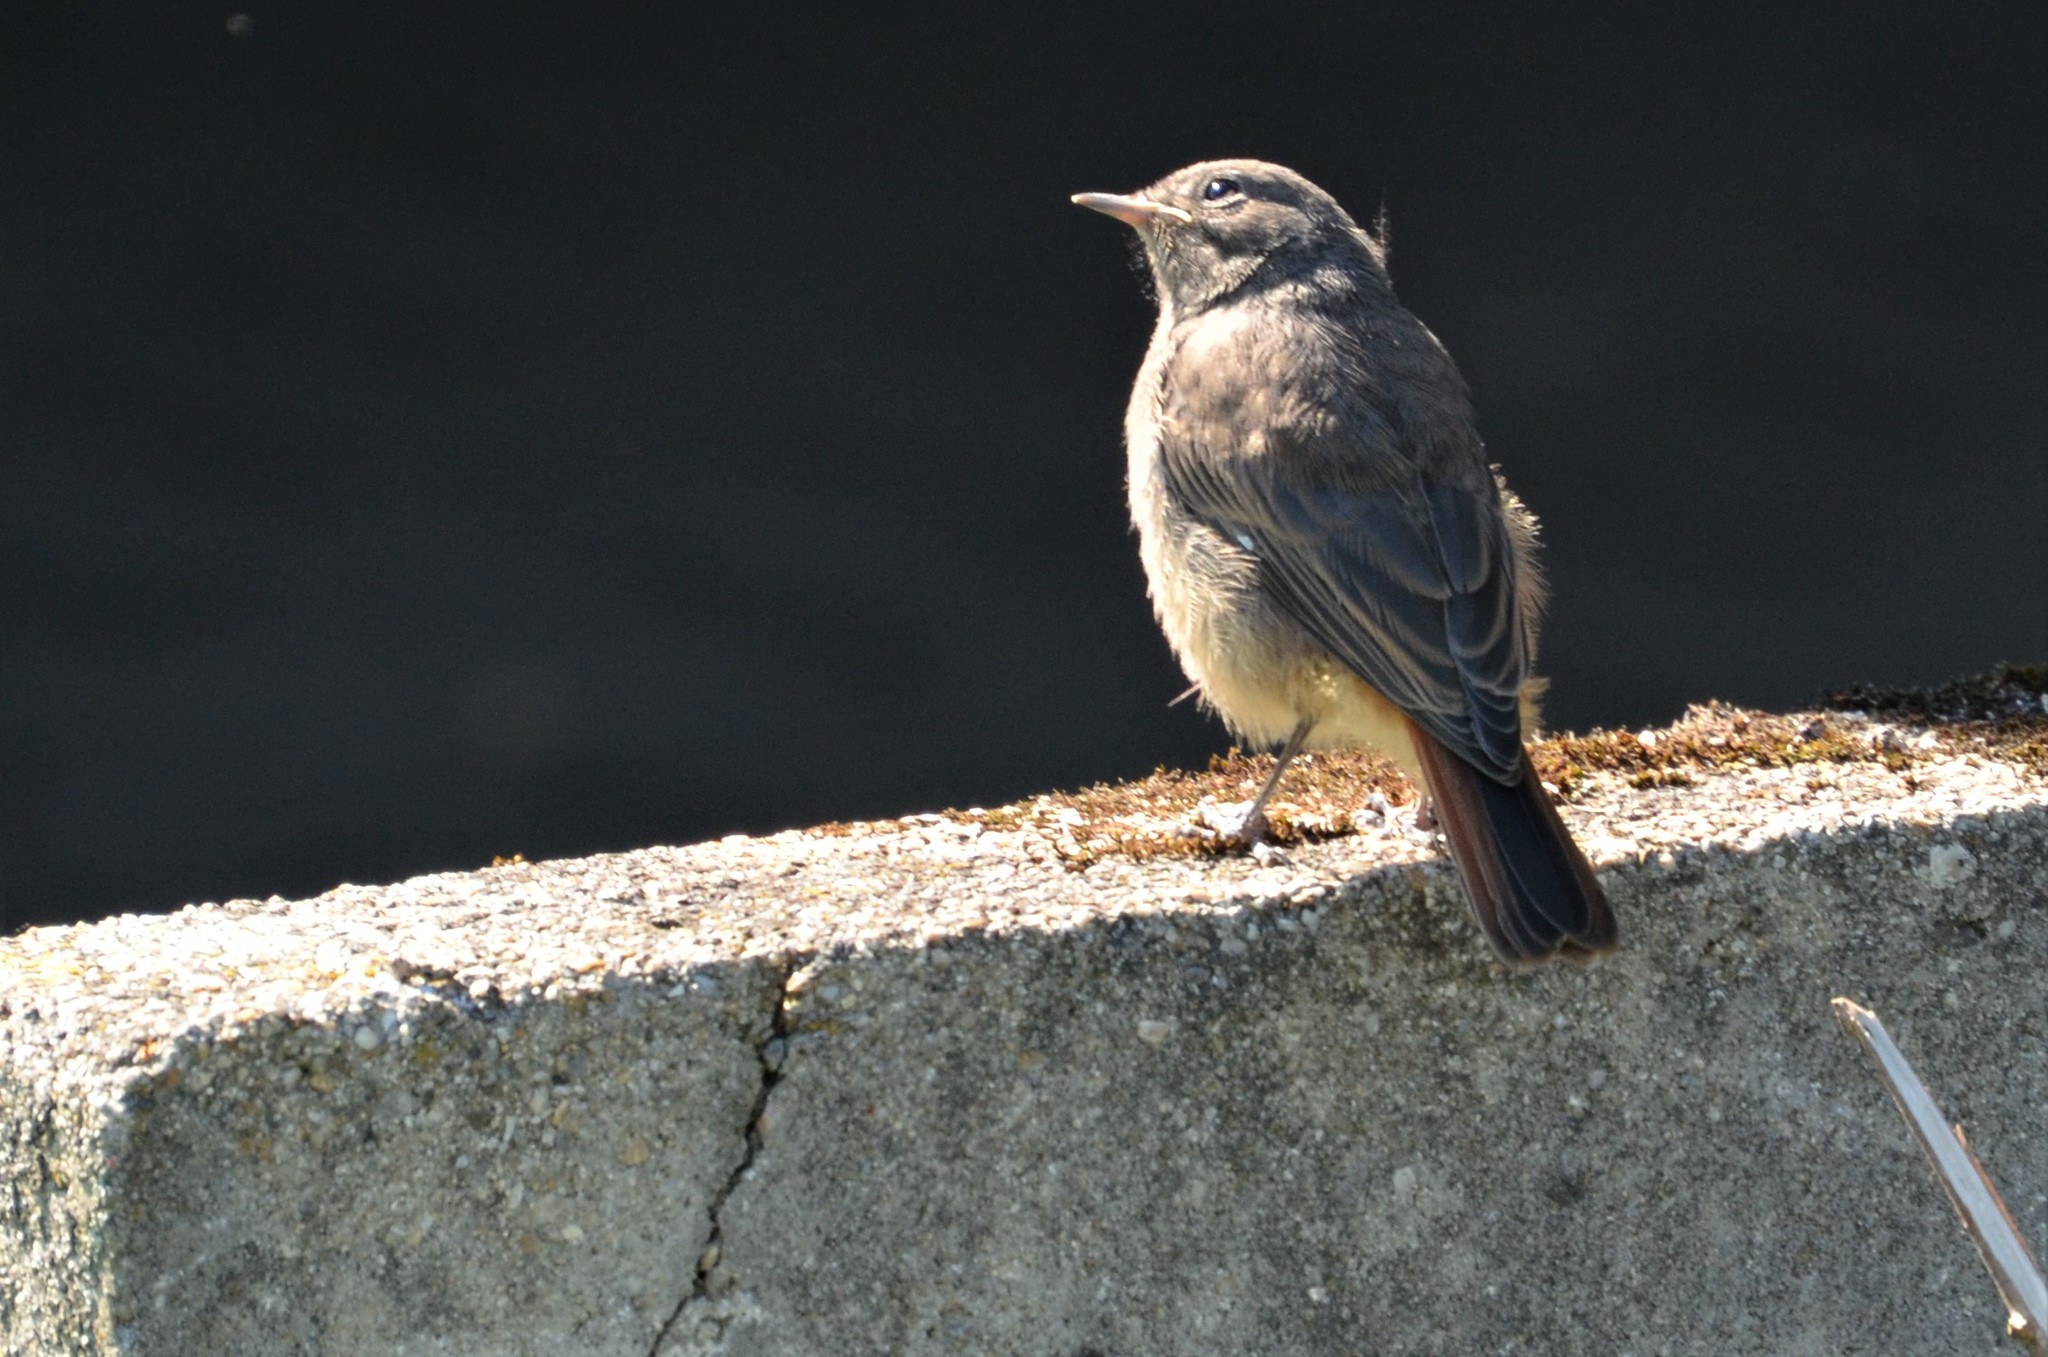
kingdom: Animalia
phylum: Chordata
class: Aves
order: Passeriformes
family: Muscicapidae
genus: Phoenicurus
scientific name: Phoenicurus ochruros
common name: Black redstart
